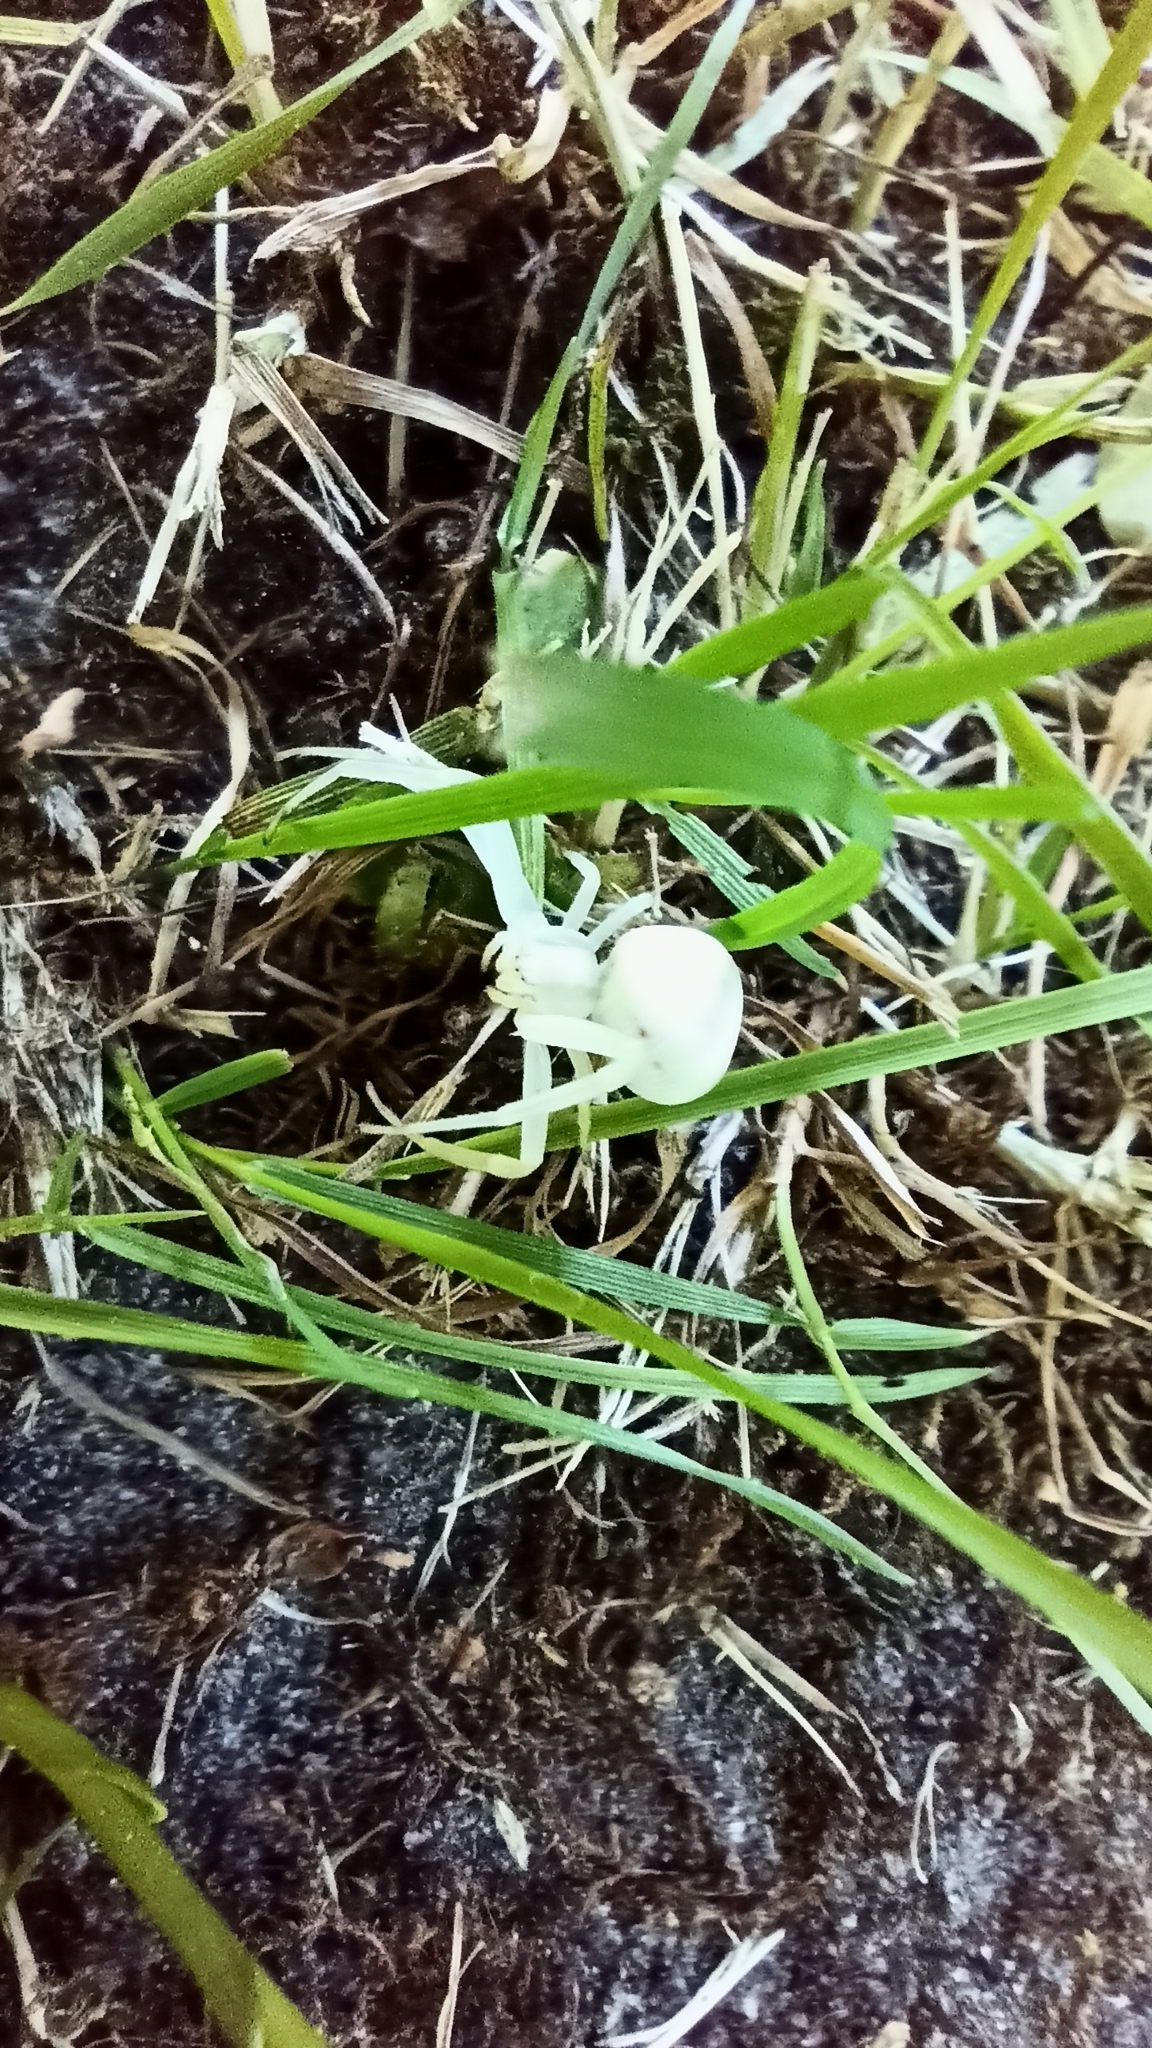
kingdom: Animalia
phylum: Arthropoda
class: Arachnida
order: Araneae
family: Thomisidae
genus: Misumena
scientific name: Misumena vatia
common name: Goldenrod crab spider
